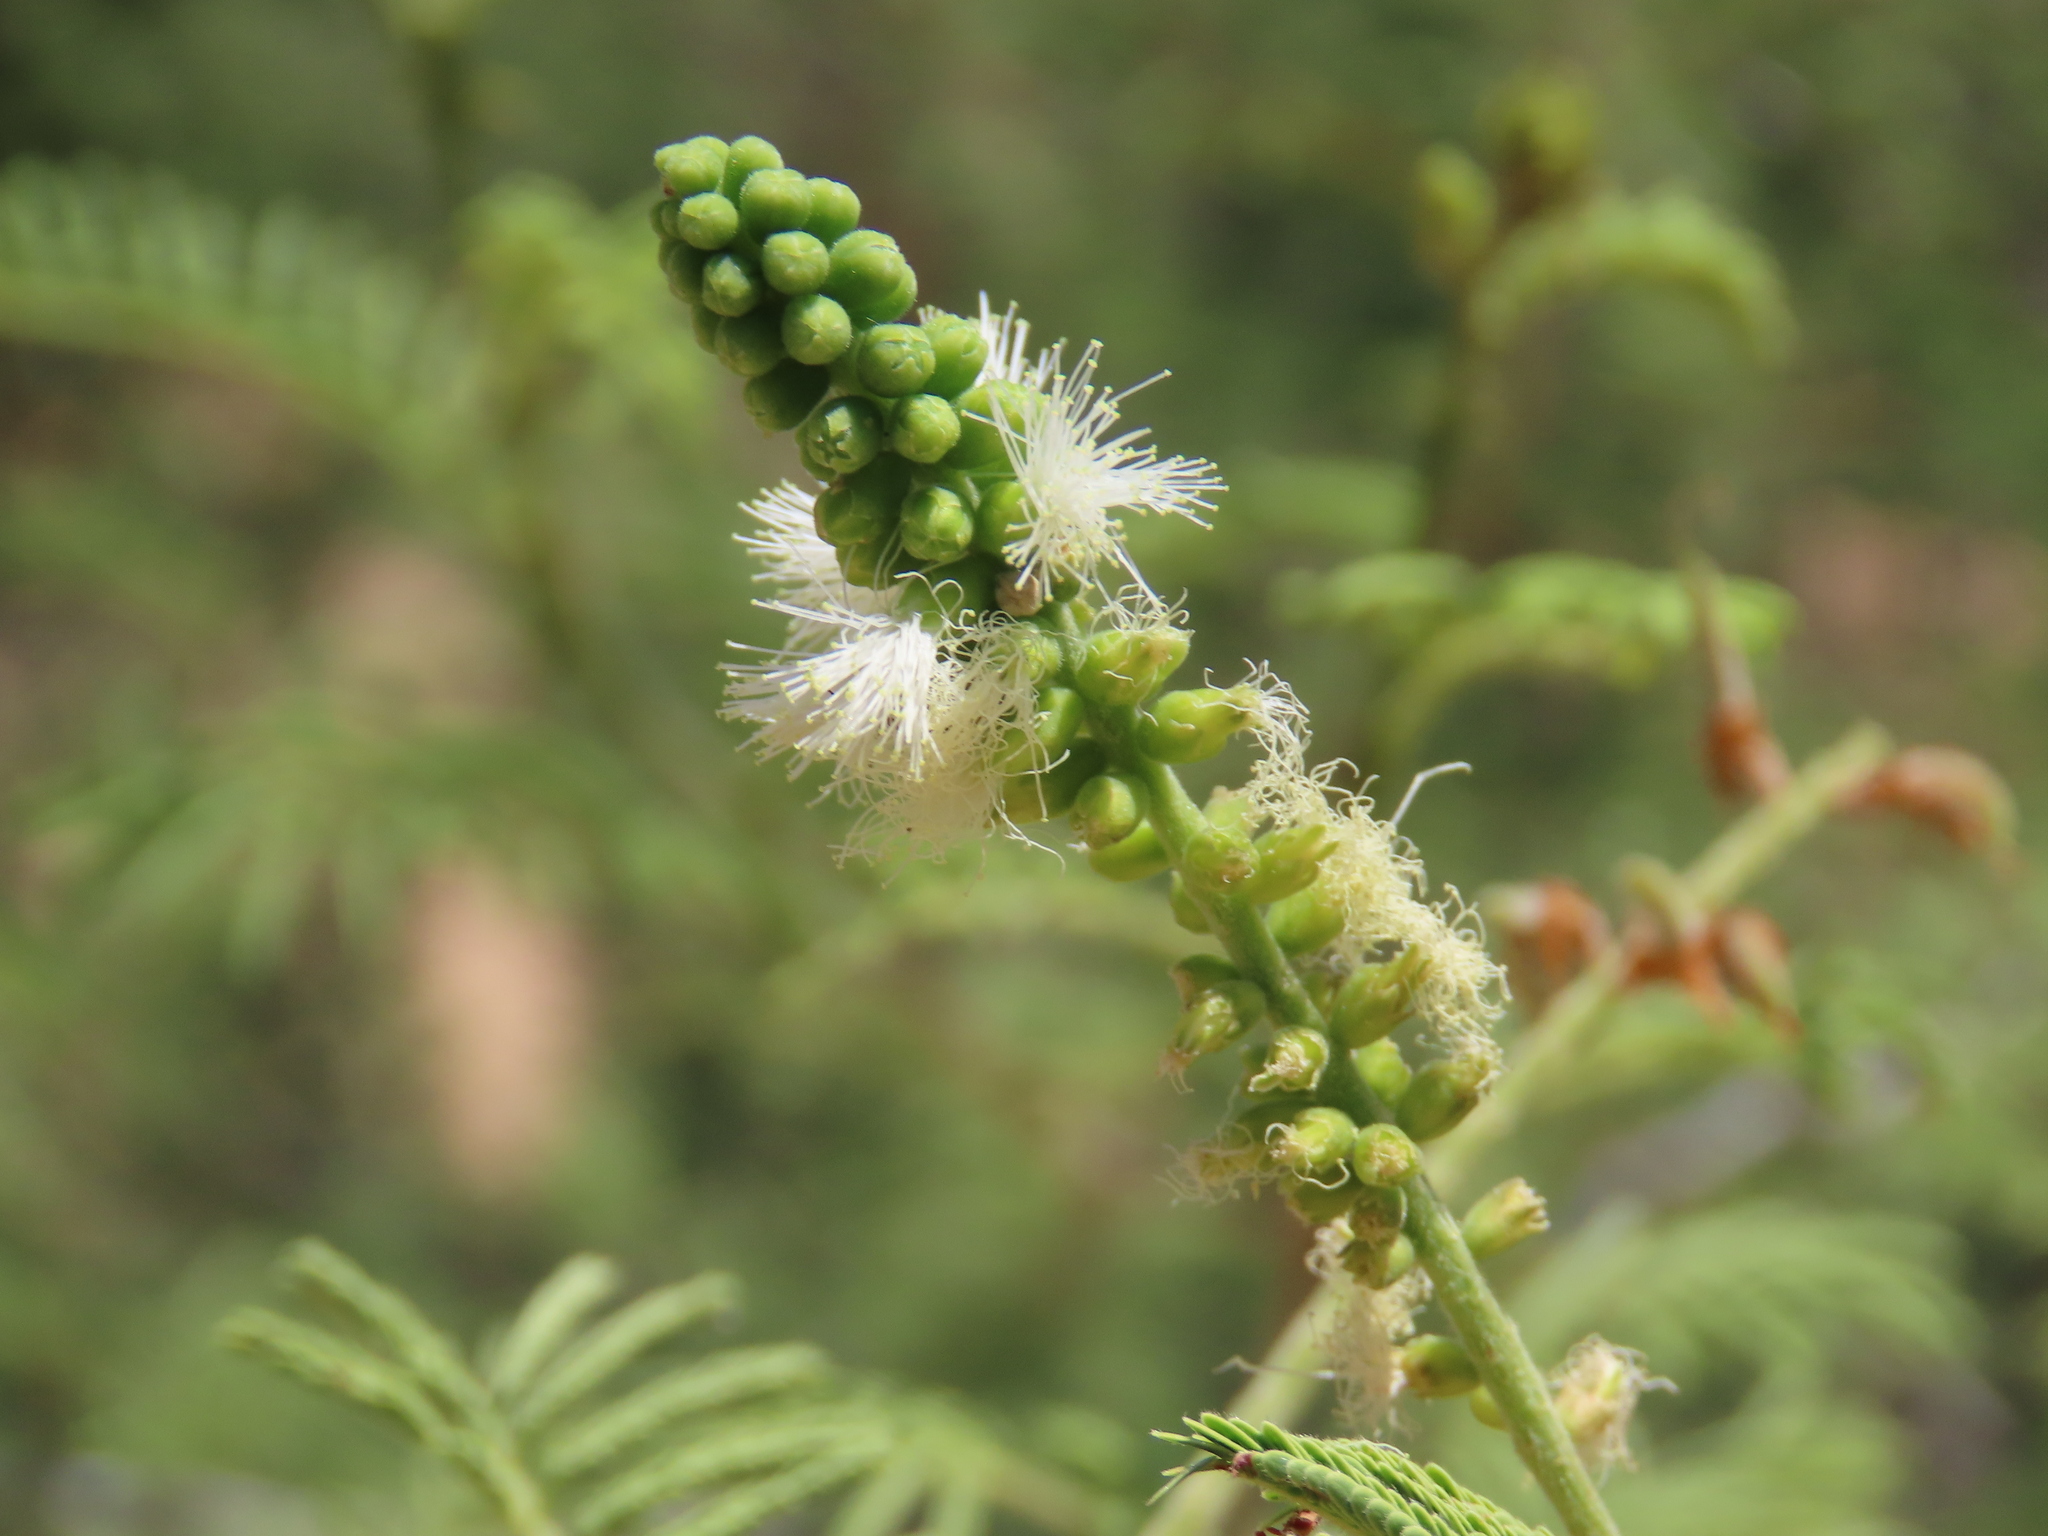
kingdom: Plantae
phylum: Tracheophyta
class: Magnoliopsida
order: Fabales
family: Fabaceae
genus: Vachellia
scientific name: Vachellia hebeclada
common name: Candle thorn
